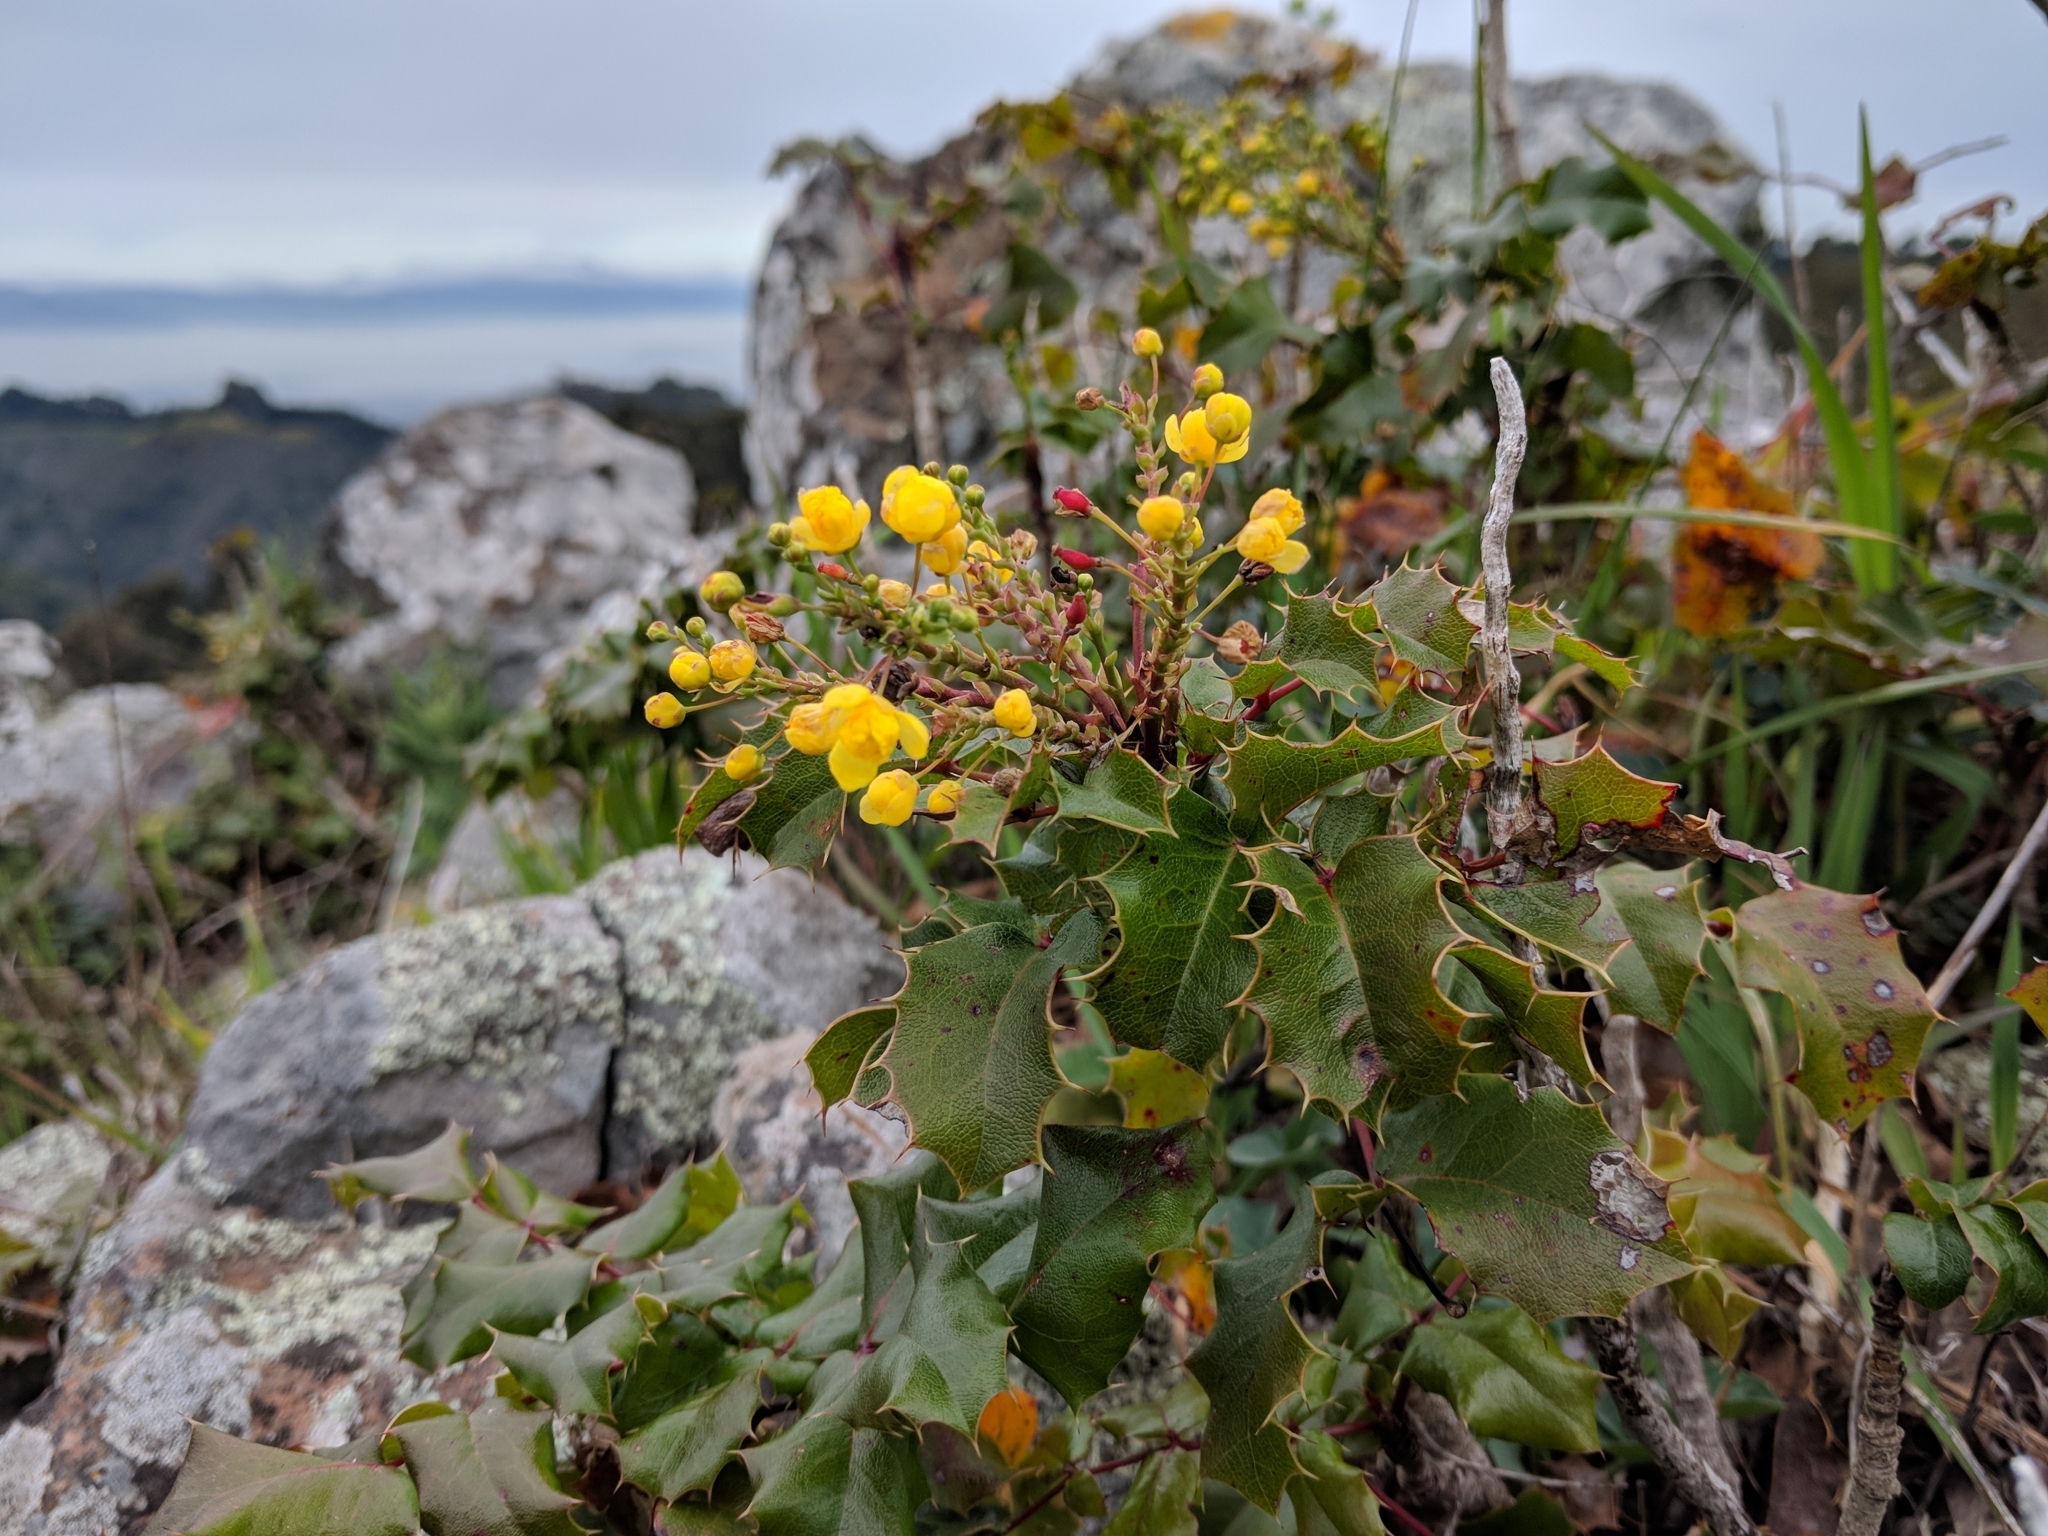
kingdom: Plantae
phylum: Tracheophyta
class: Magnoliopsida
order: Ranunculales
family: Berberidaceae
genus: Mahonia
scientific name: Mahonia
